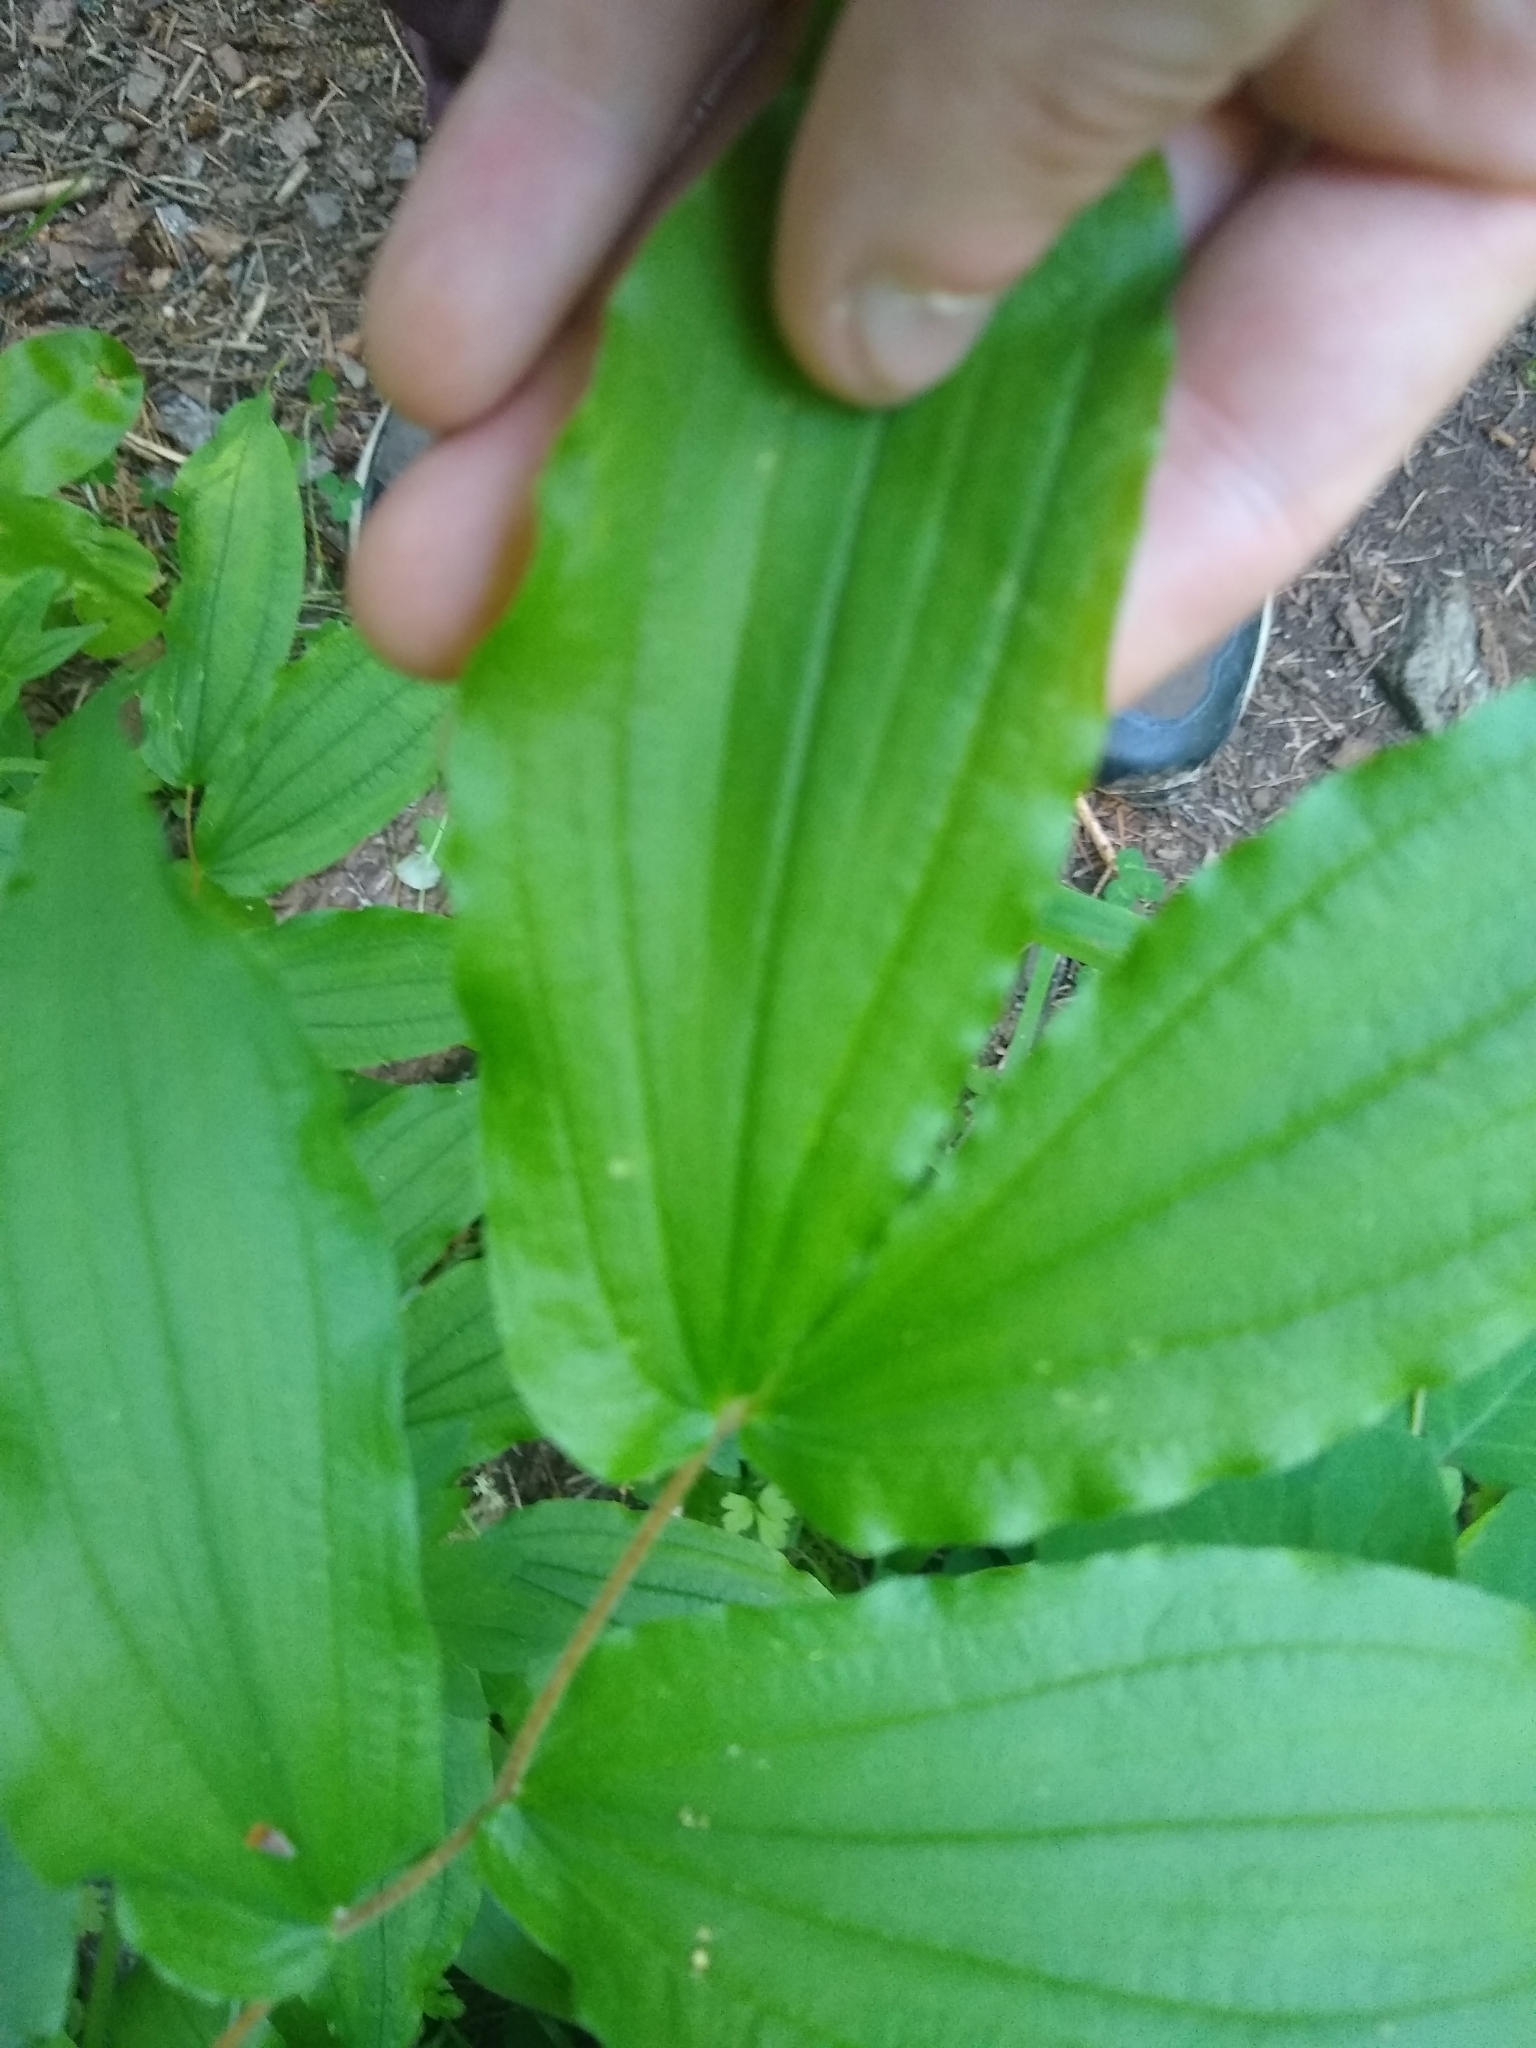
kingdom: Plantae
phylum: Tracheophyta
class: Liliopsida
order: Liliales
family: Liliaceae
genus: Prosartes
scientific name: Prosartes hookeri
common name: Fairy-bells
